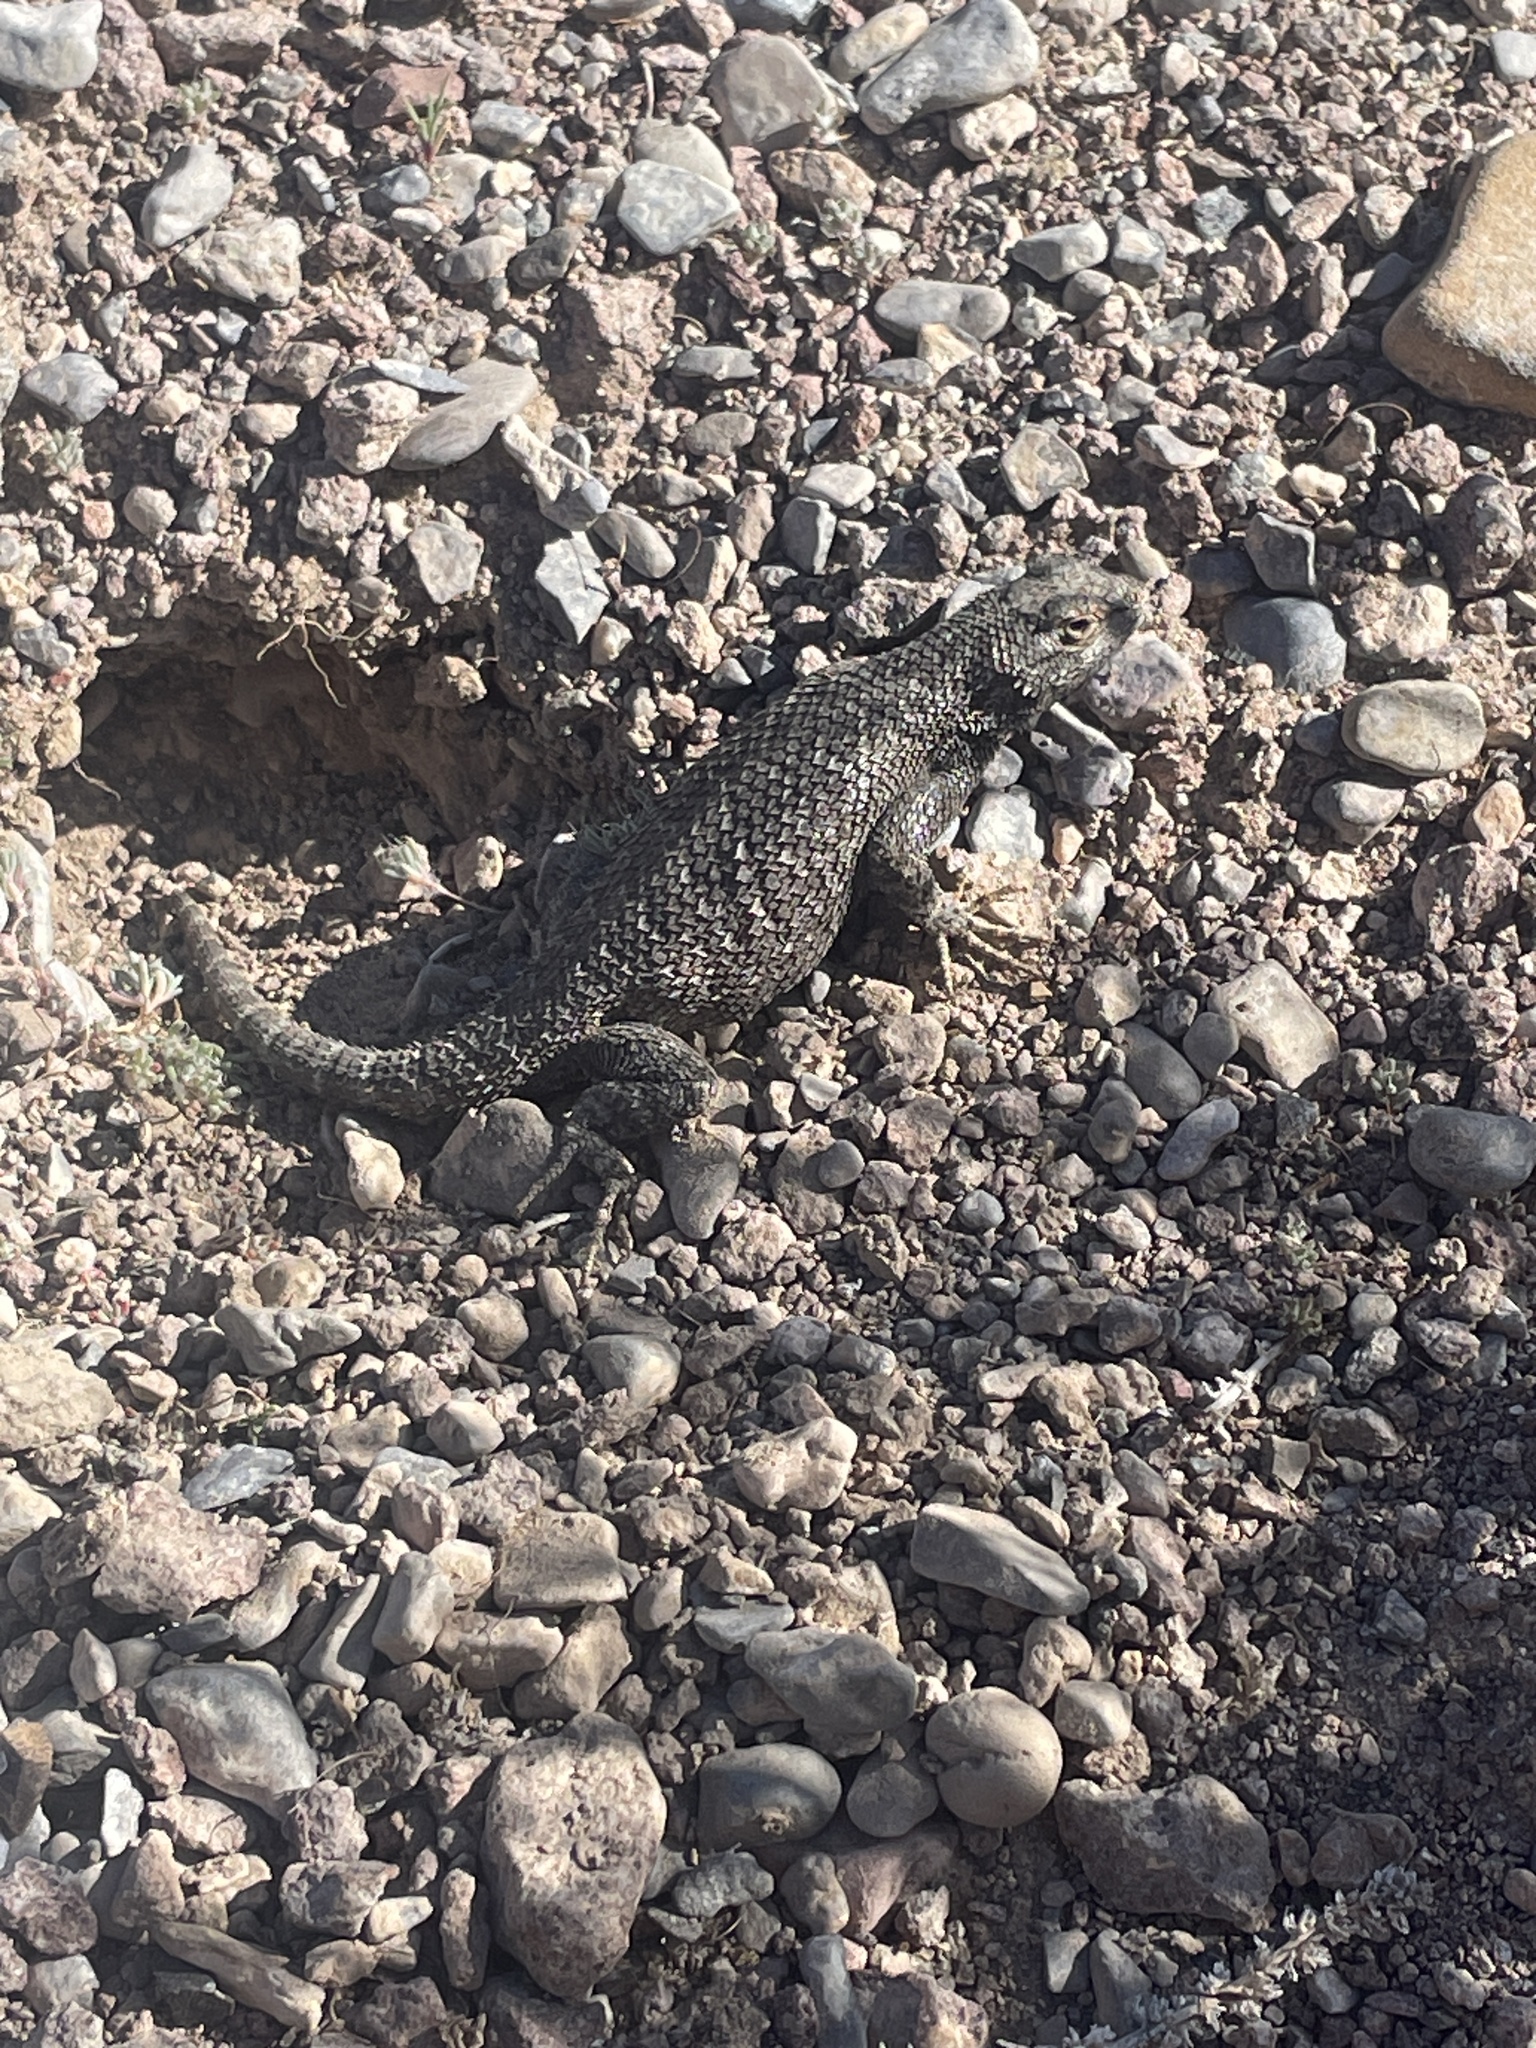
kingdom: Animalia
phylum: Chordata
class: Squamata
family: Phrynosomatidae
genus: Sceloporus
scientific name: Sceloporus occidentalis
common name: Western fence lizard
